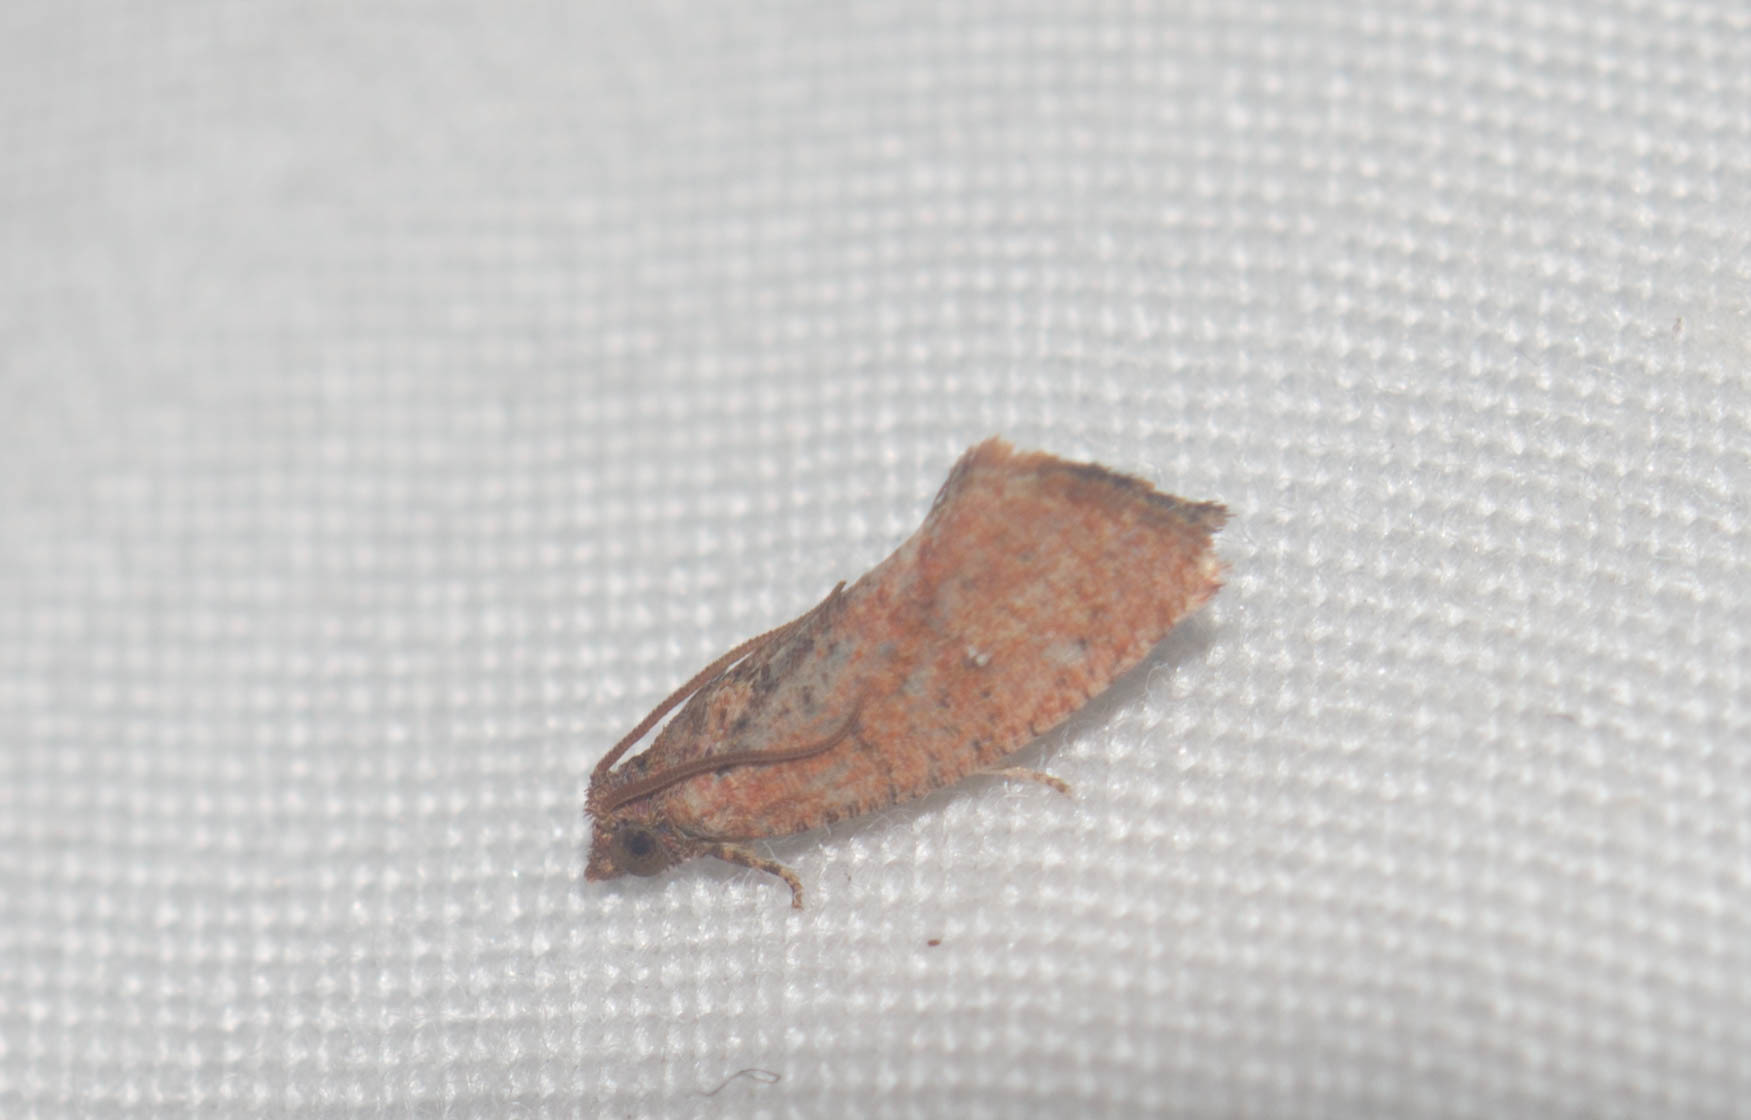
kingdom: Animalia
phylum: Arthropoda
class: Insecta
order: Lepidoptera
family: Tortricidae
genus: Cryptophlebia
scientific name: Cryptophlebia illepida
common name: Moth
